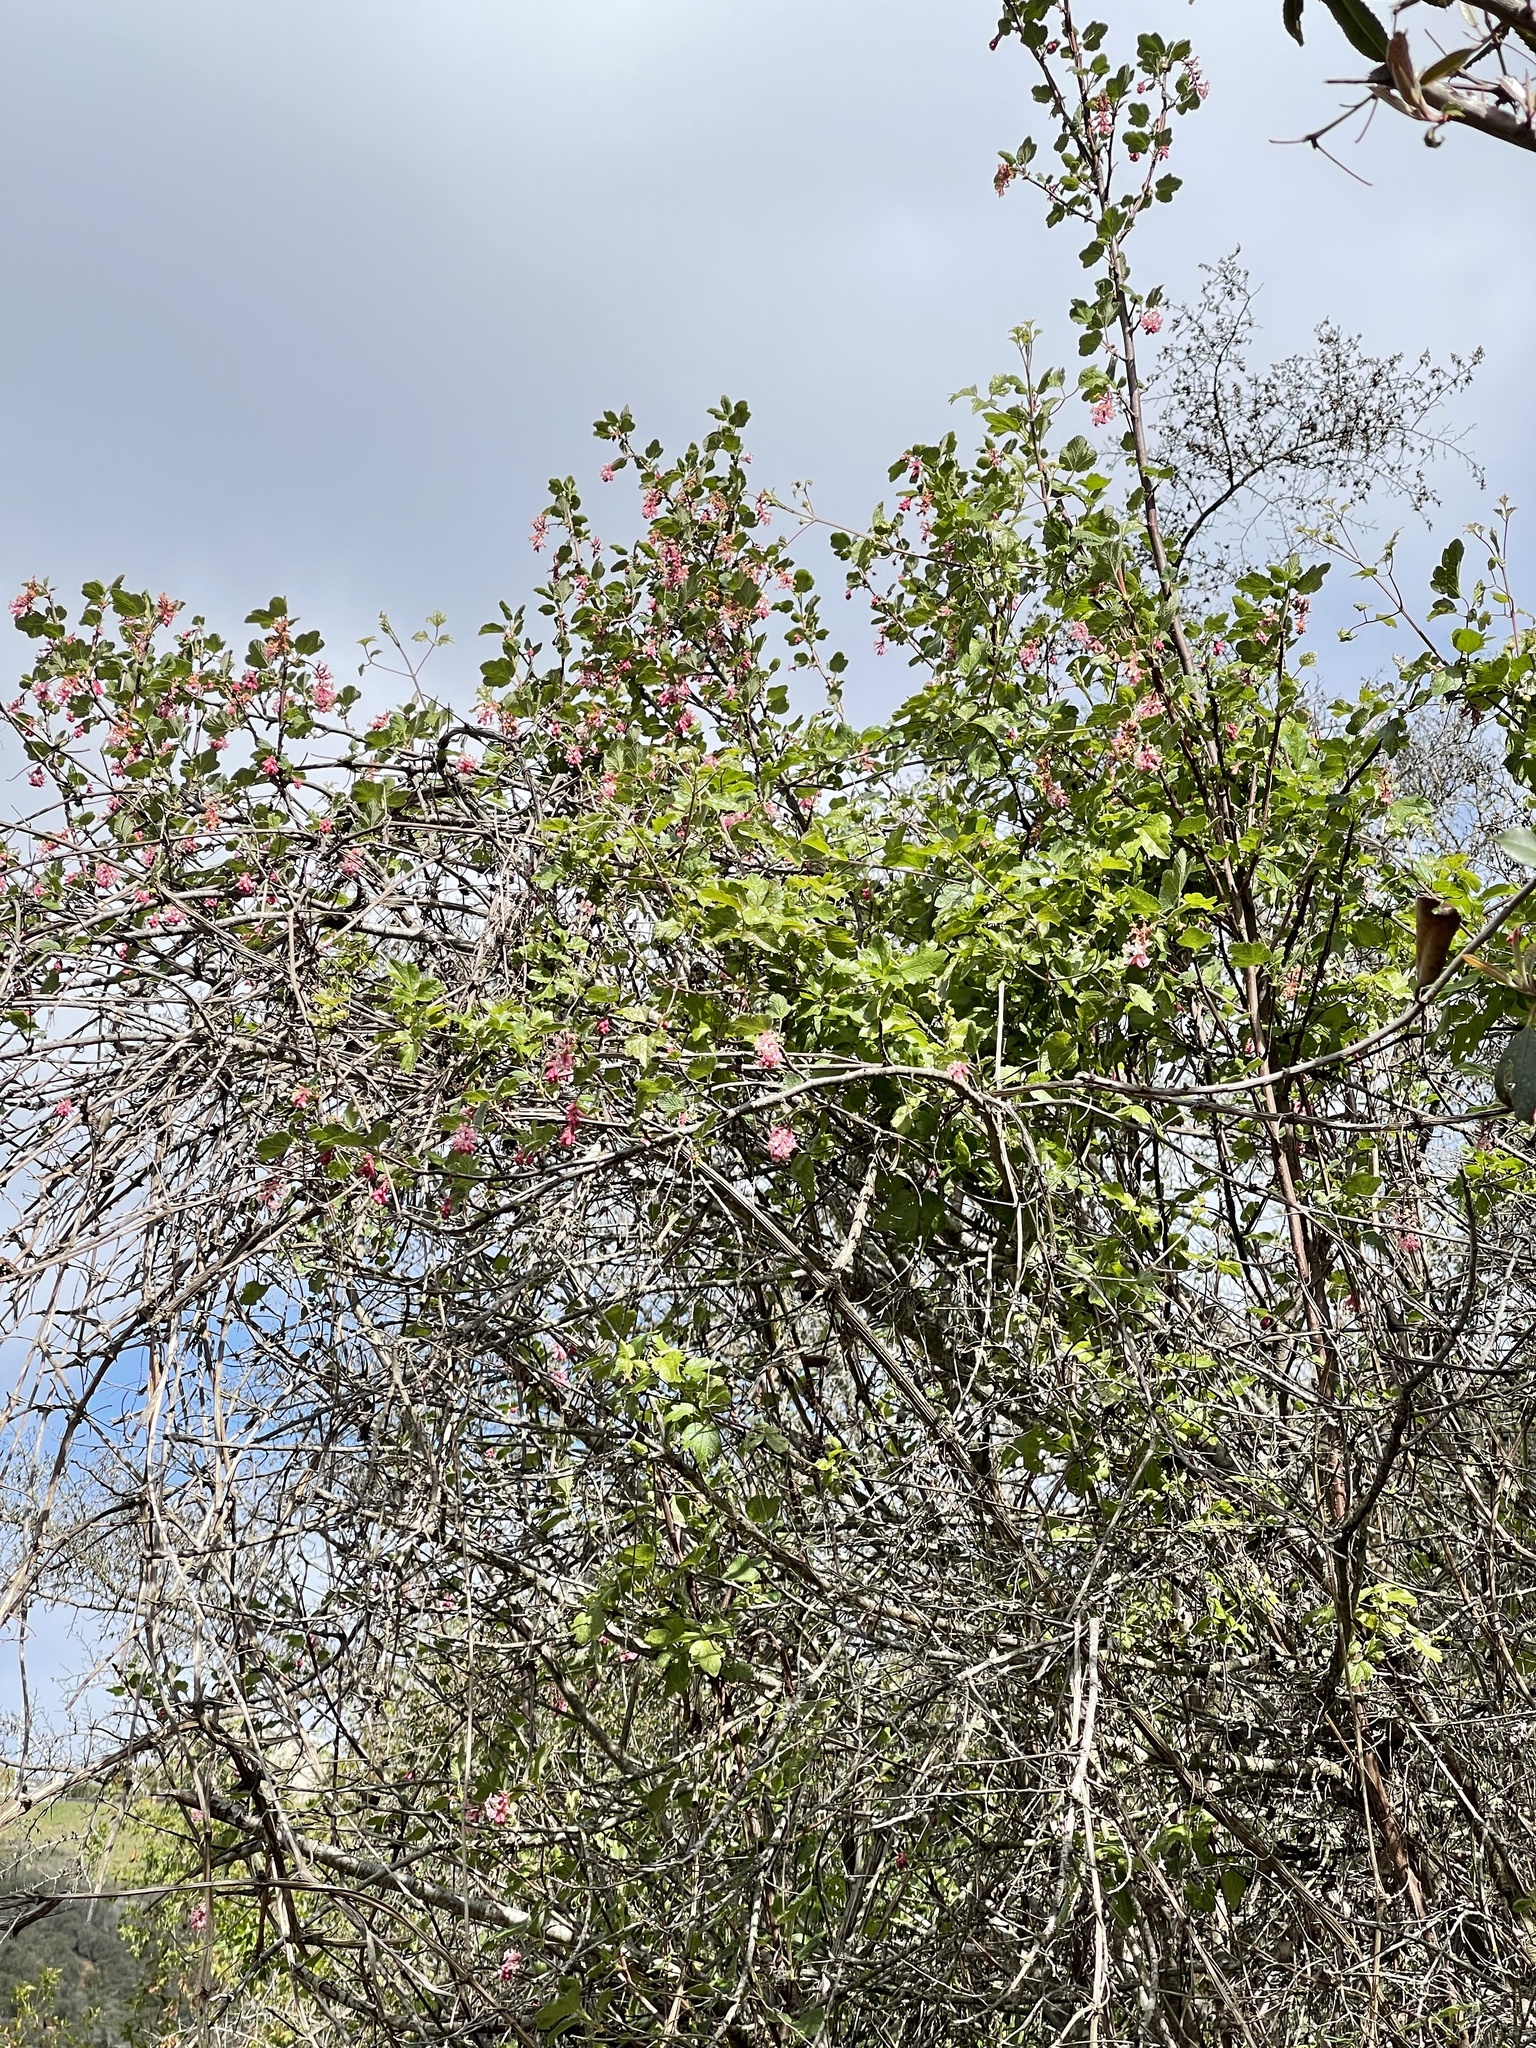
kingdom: Plantae
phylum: Tracheophyta
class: Magnoliopsida
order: Saxifragales
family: Grossulariaceae
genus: Ribes
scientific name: Ribes malvaceum
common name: Chaparral currant
